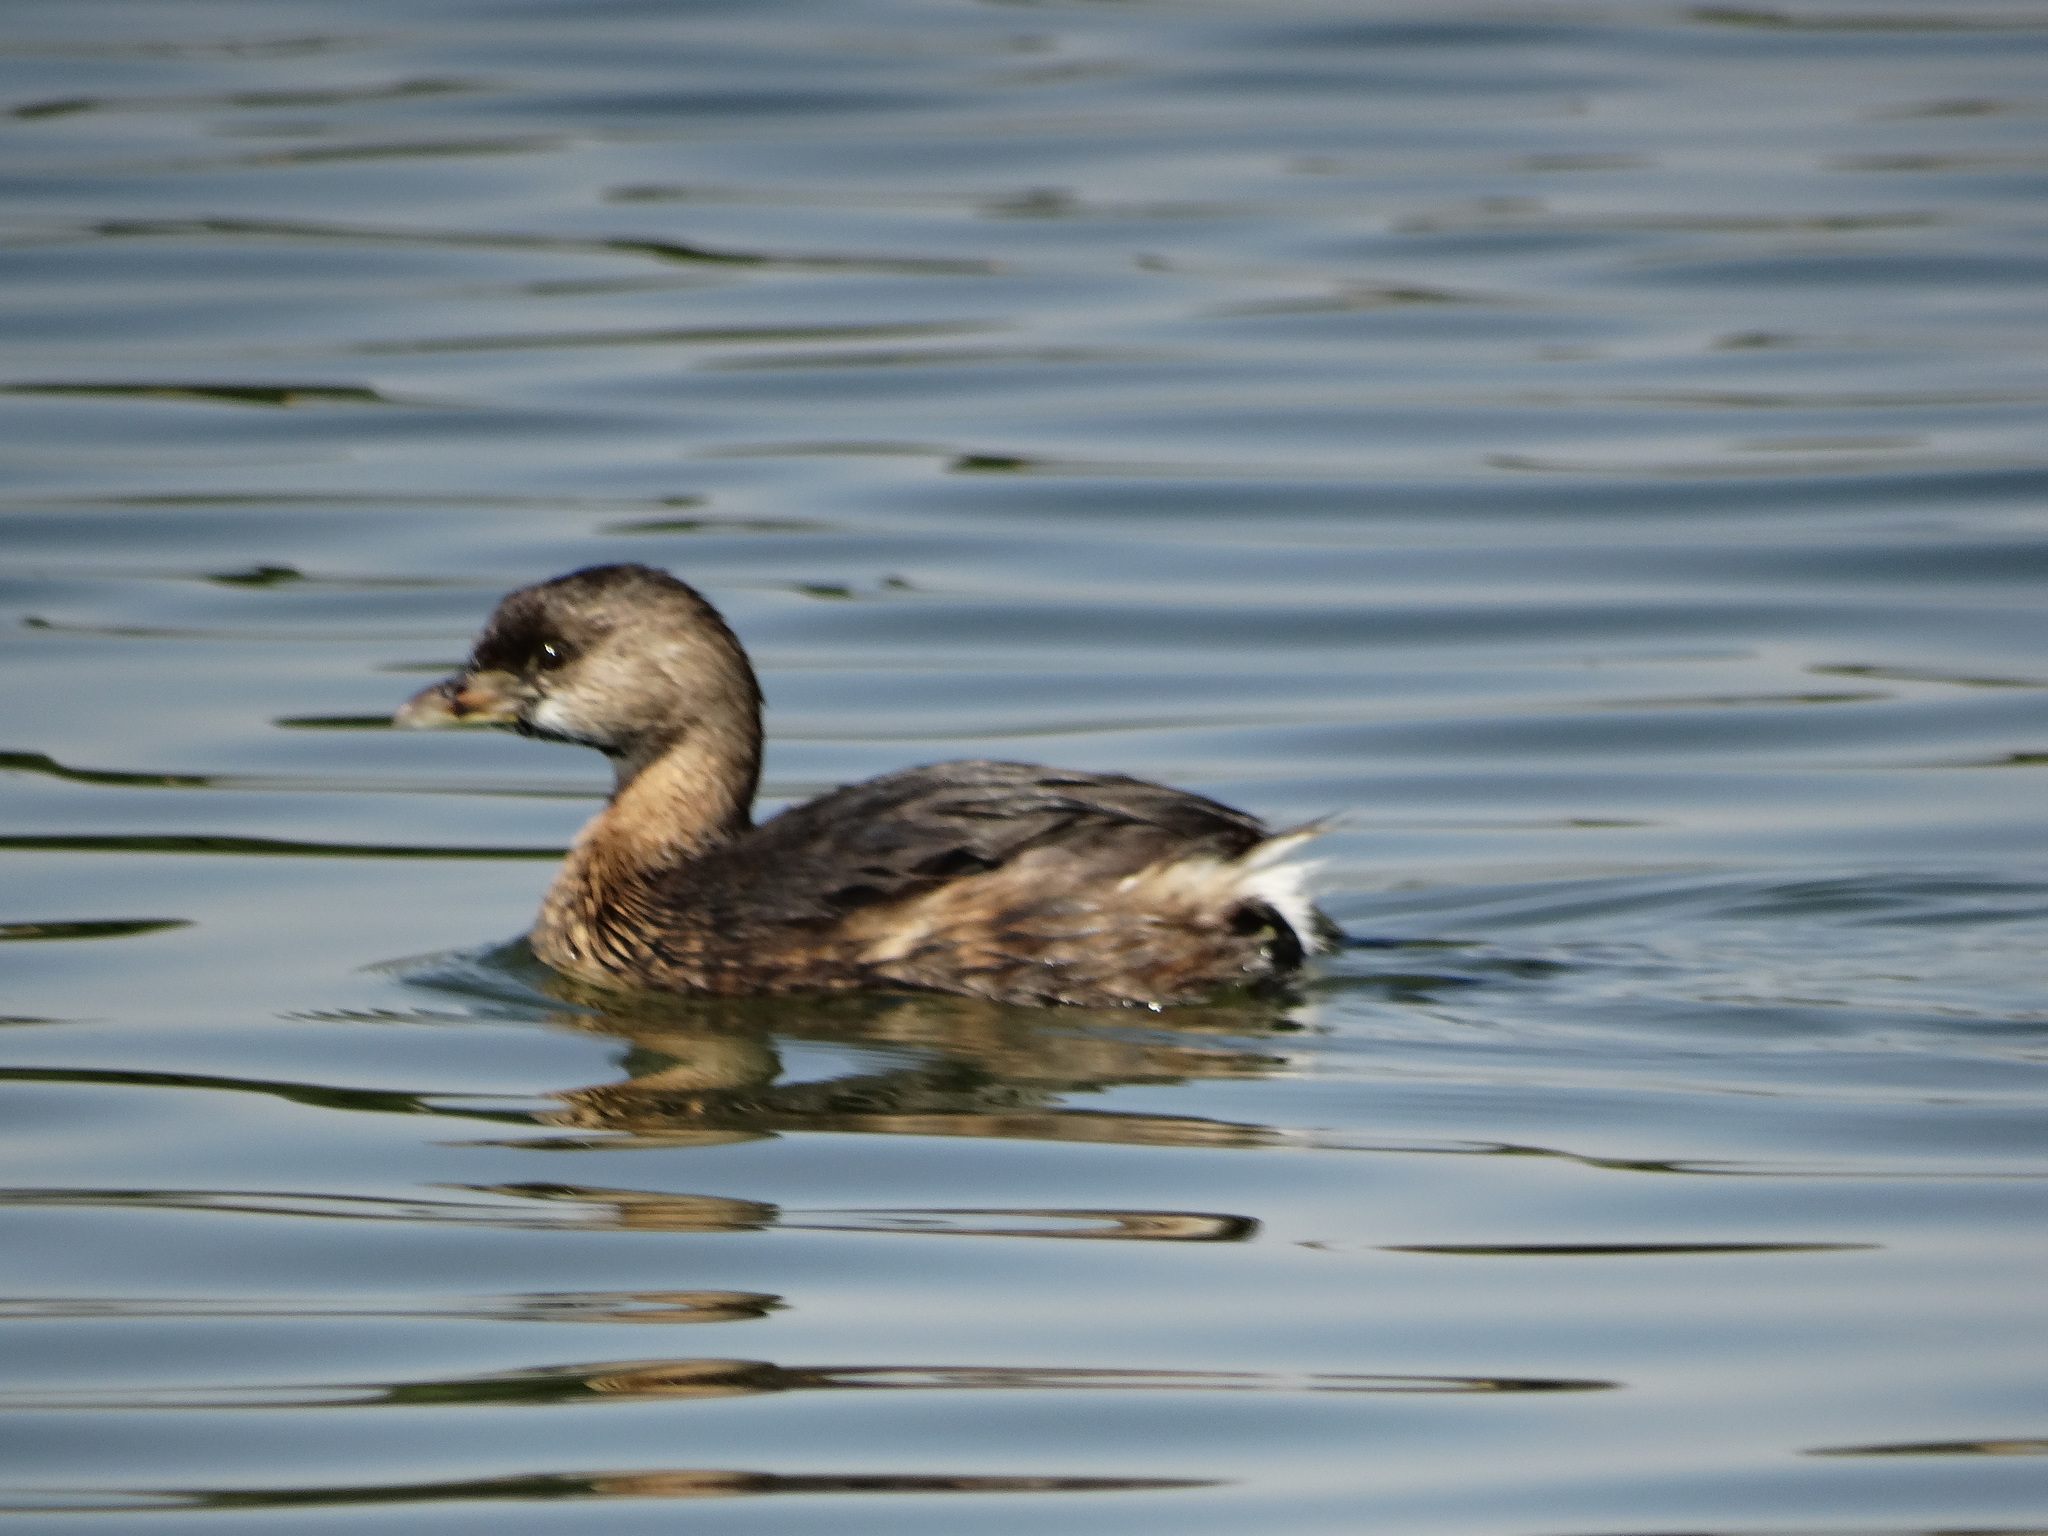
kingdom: Animalia
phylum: Chordata
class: Aves
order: Podicipediformes
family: Podicipedidae
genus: Podilymbus
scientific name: Podilymbus podiceps
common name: Pied-billed grebe
